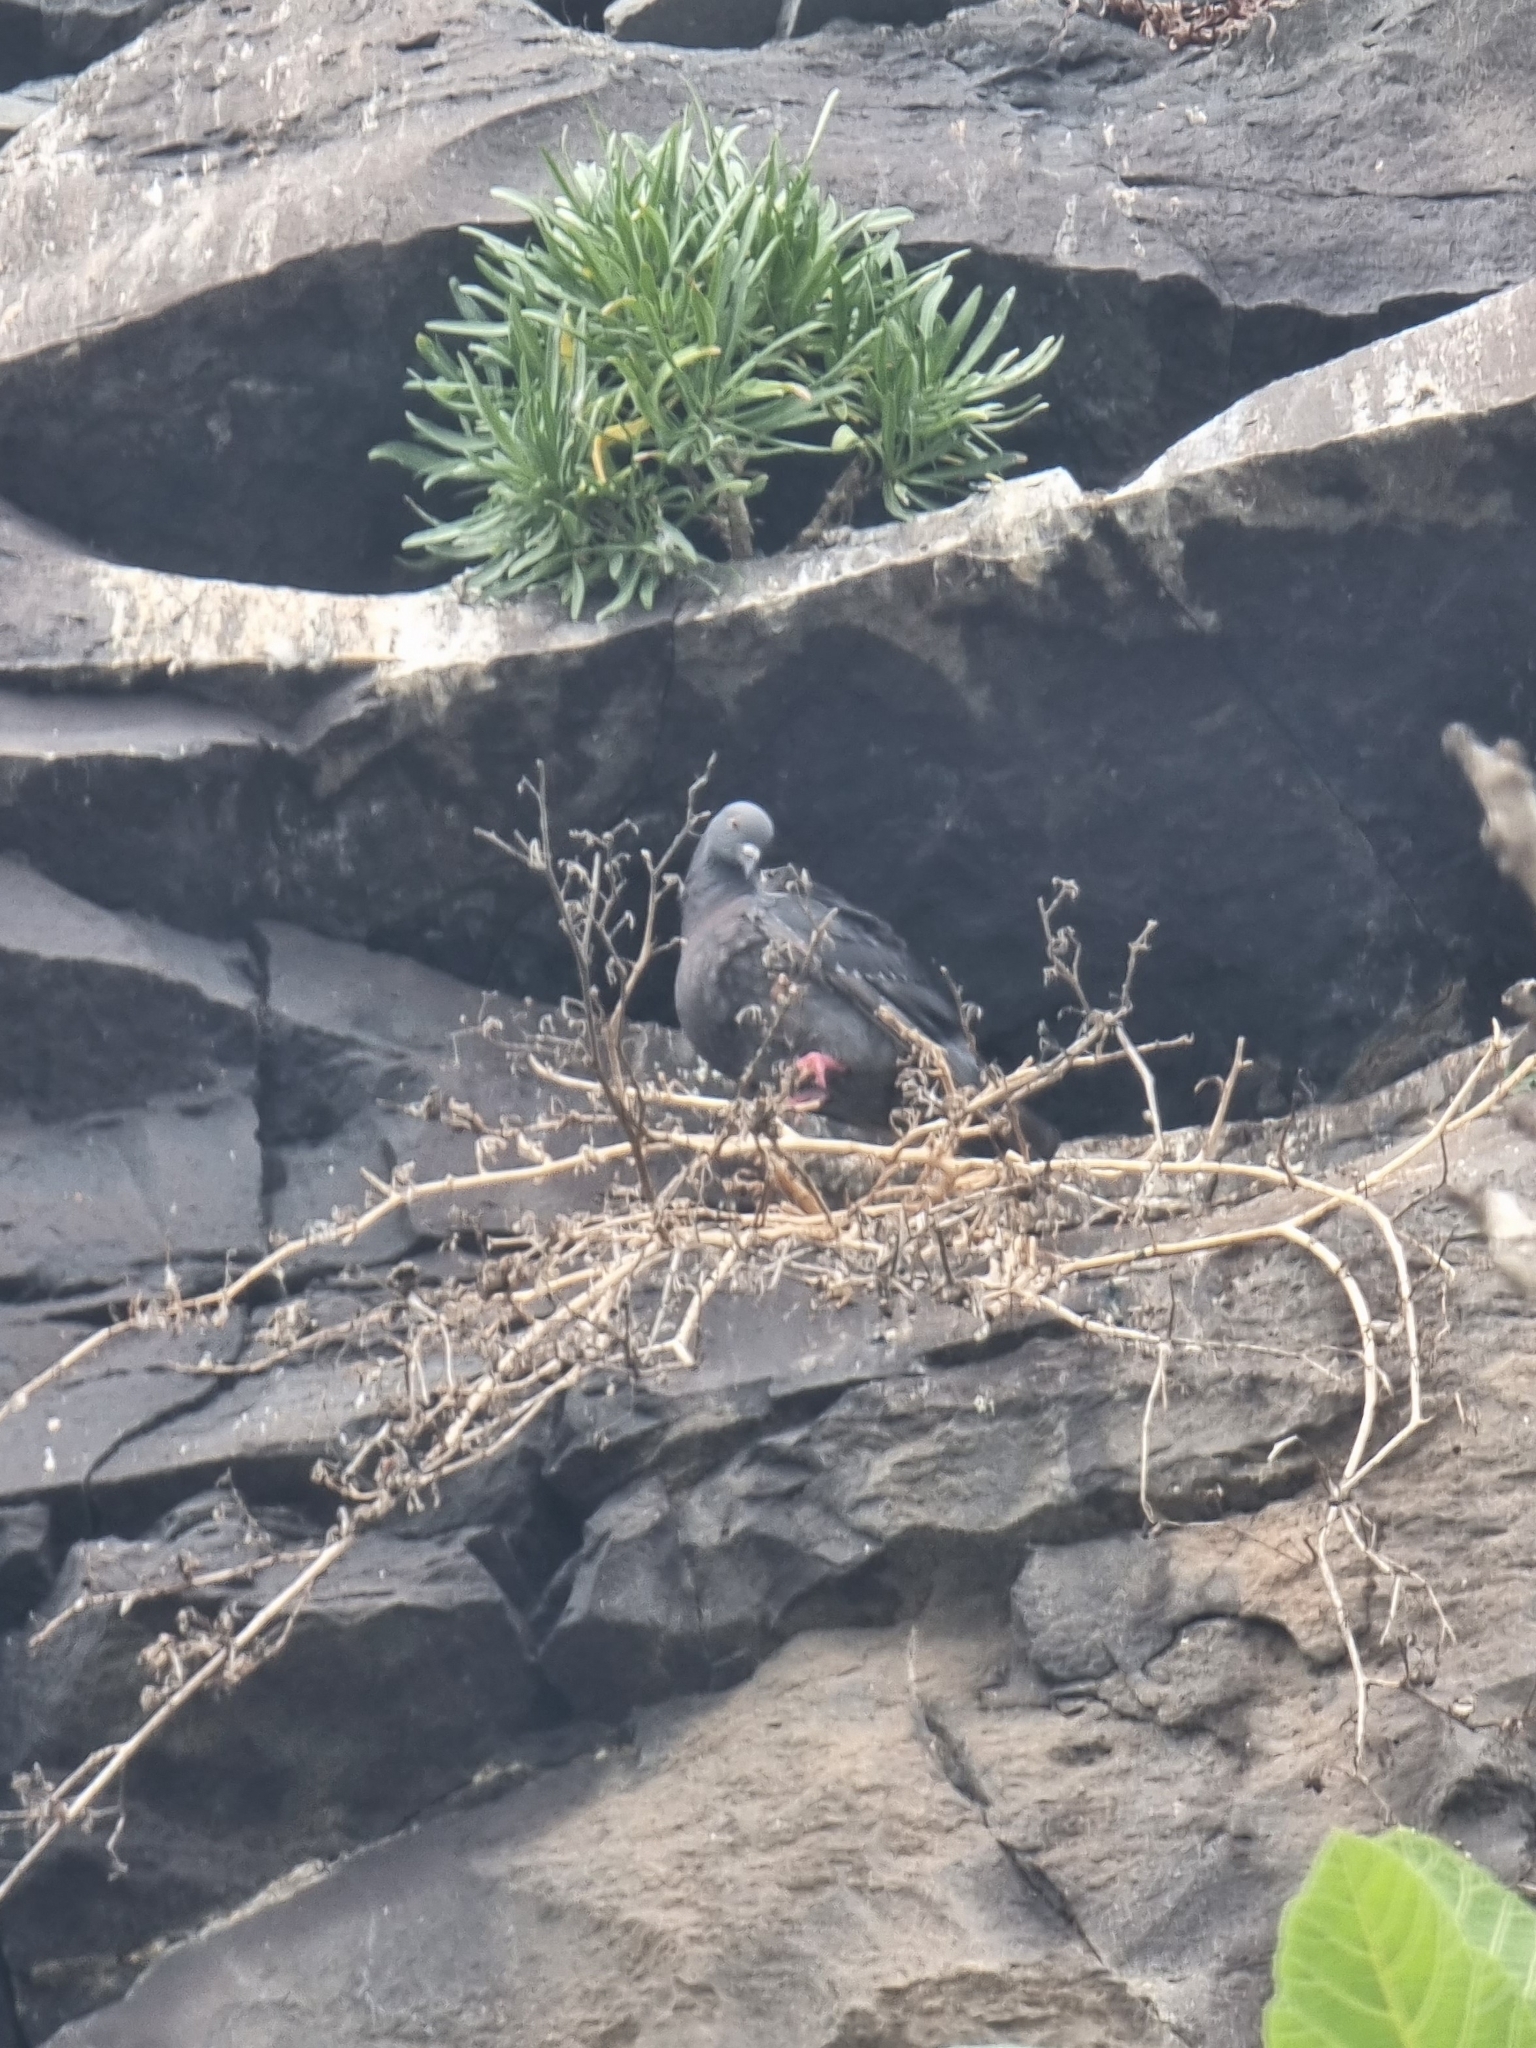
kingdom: Animalia
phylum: Chordata
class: Aves
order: Columbiformes
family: Columbidae
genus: Columba
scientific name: Columba livia
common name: Rock pigeon
